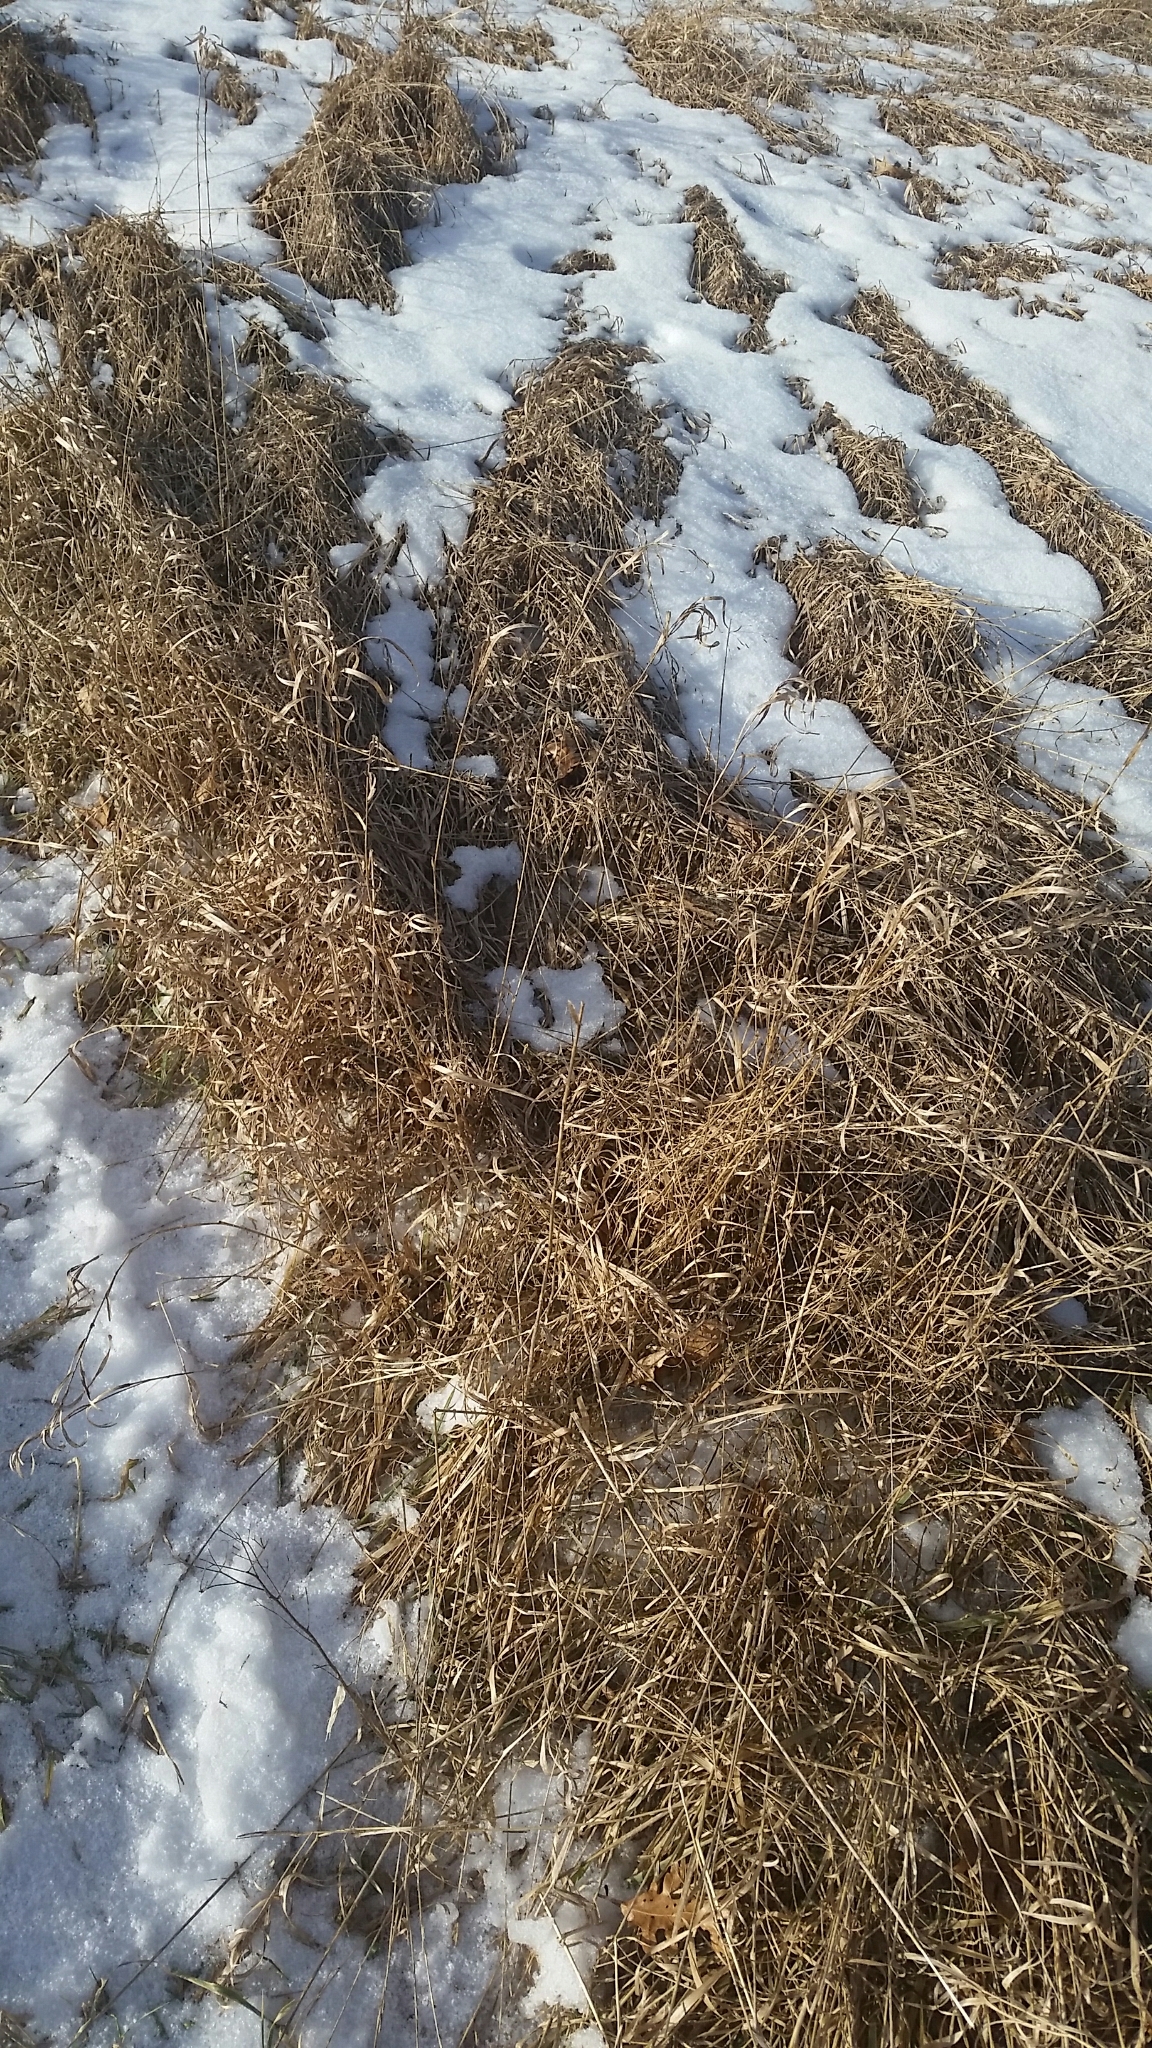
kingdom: Plantae
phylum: Tracheophyta
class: Liliopsida
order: Poales
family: Poaceae
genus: Bromus
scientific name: Bromus inermis
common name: Smooth brome
